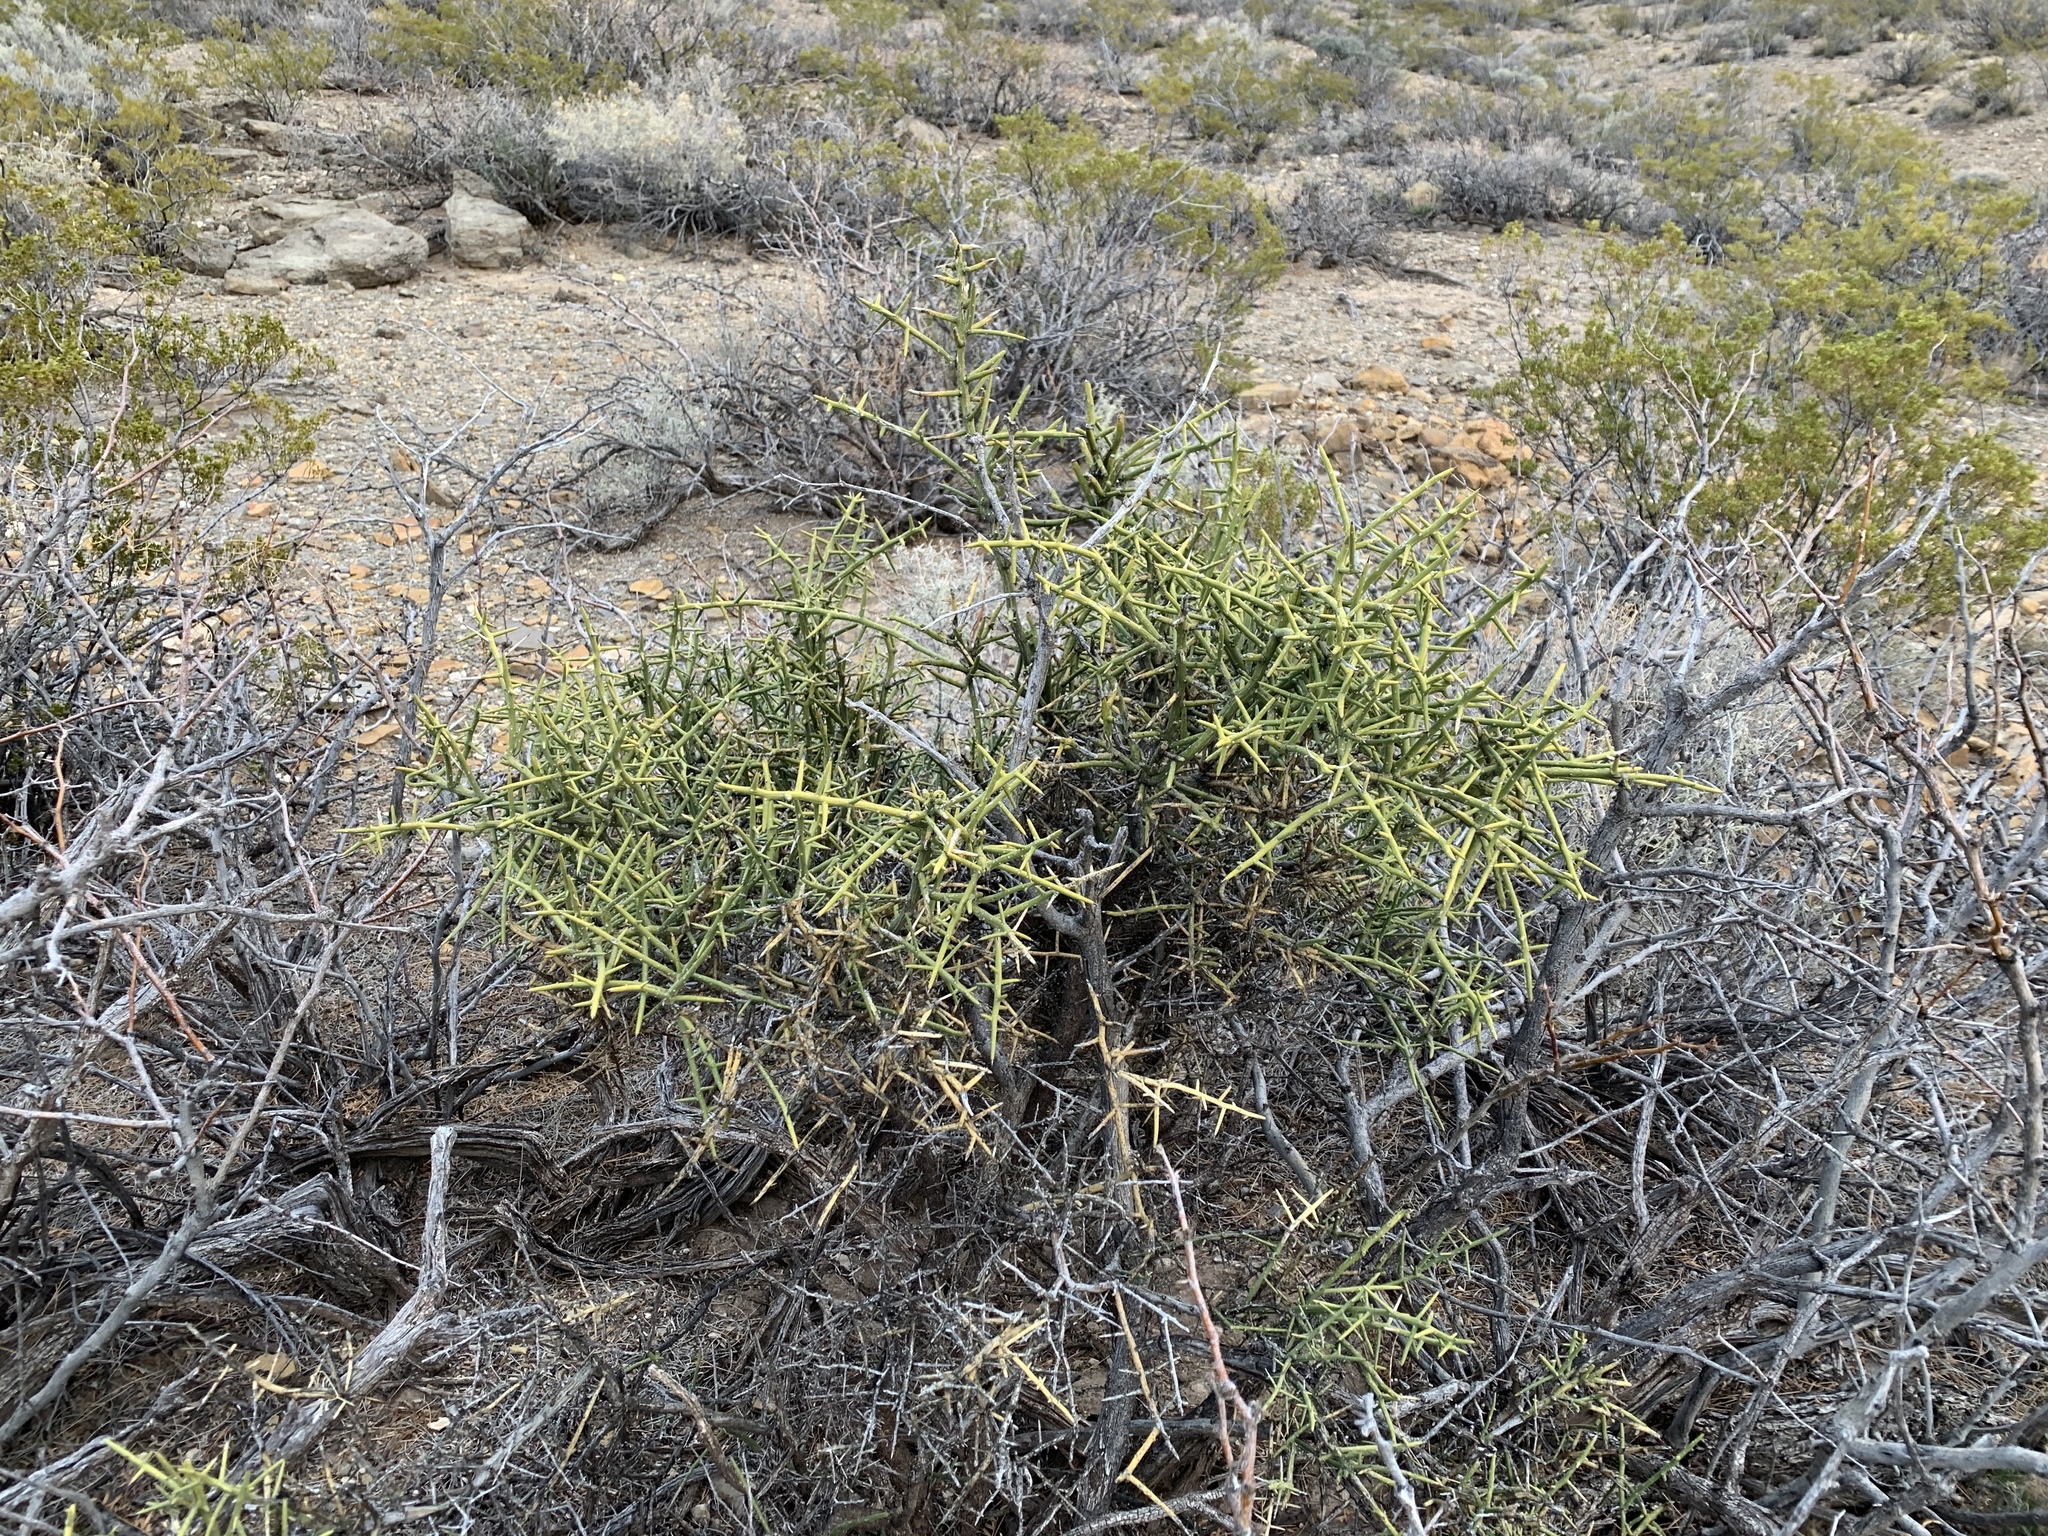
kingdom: Plantae
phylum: Tracheophyta
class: Magnoliopsida
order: Brassicales
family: Koeberliniaceae
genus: Koeberlinia
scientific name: Koeberlinia spinosa
